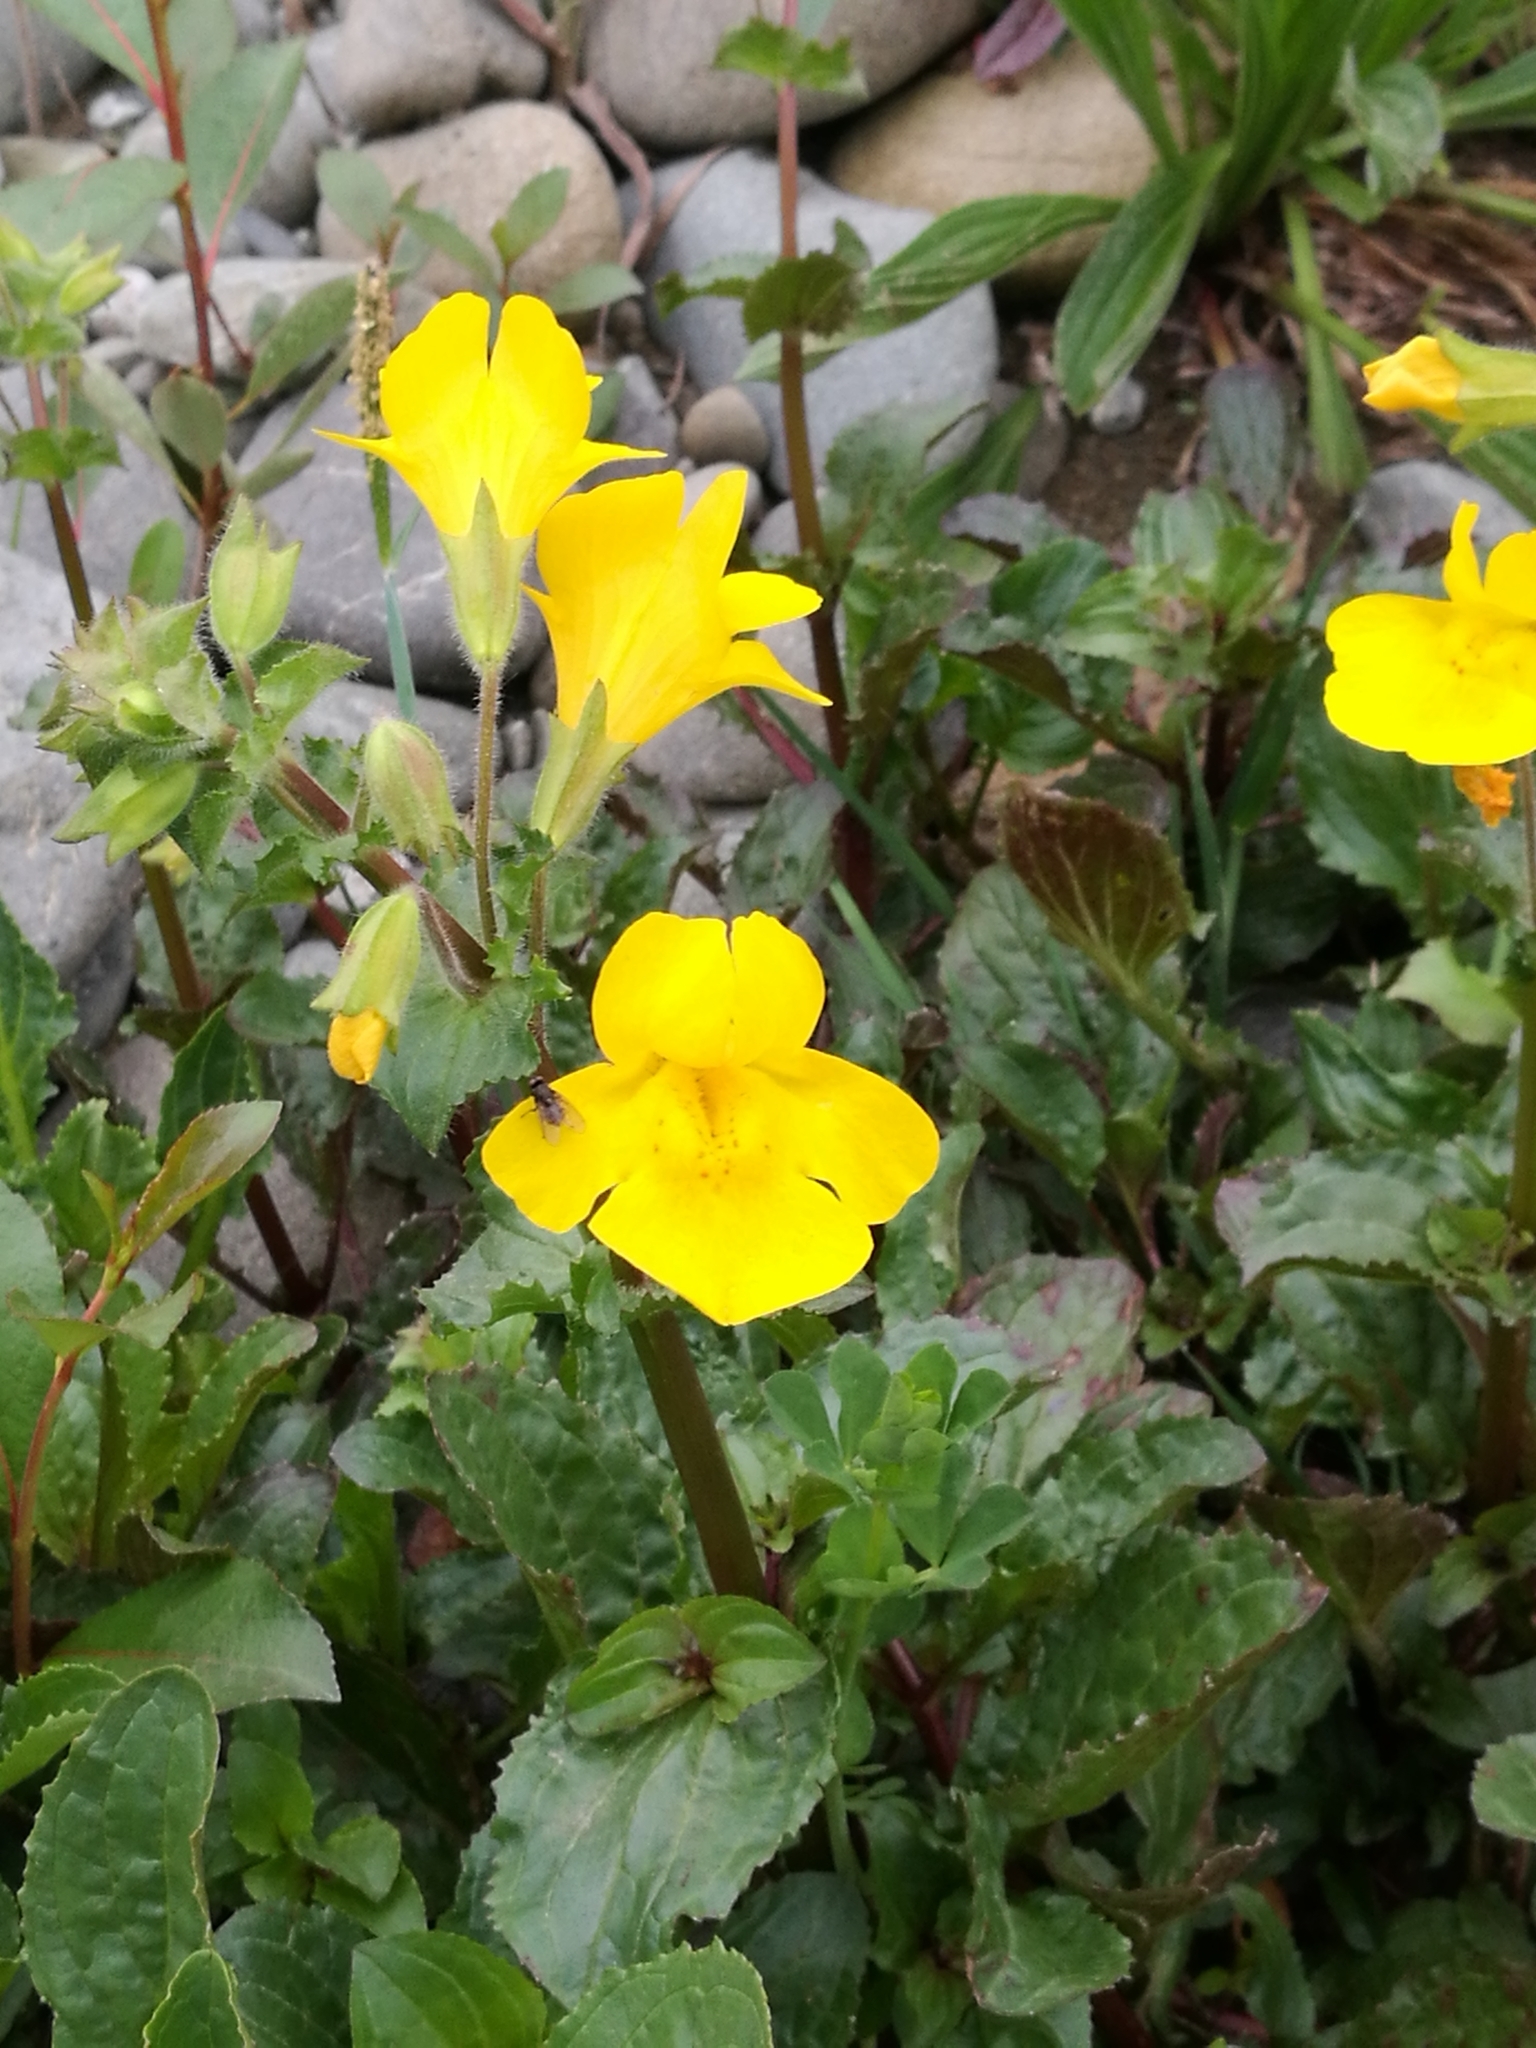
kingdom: Plantae
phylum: Tracheophyta
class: Magnoliopsida
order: Lamiales
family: Phrymaceae
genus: Erythranthe
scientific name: Erythranthe guttata
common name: Monkeyflower
